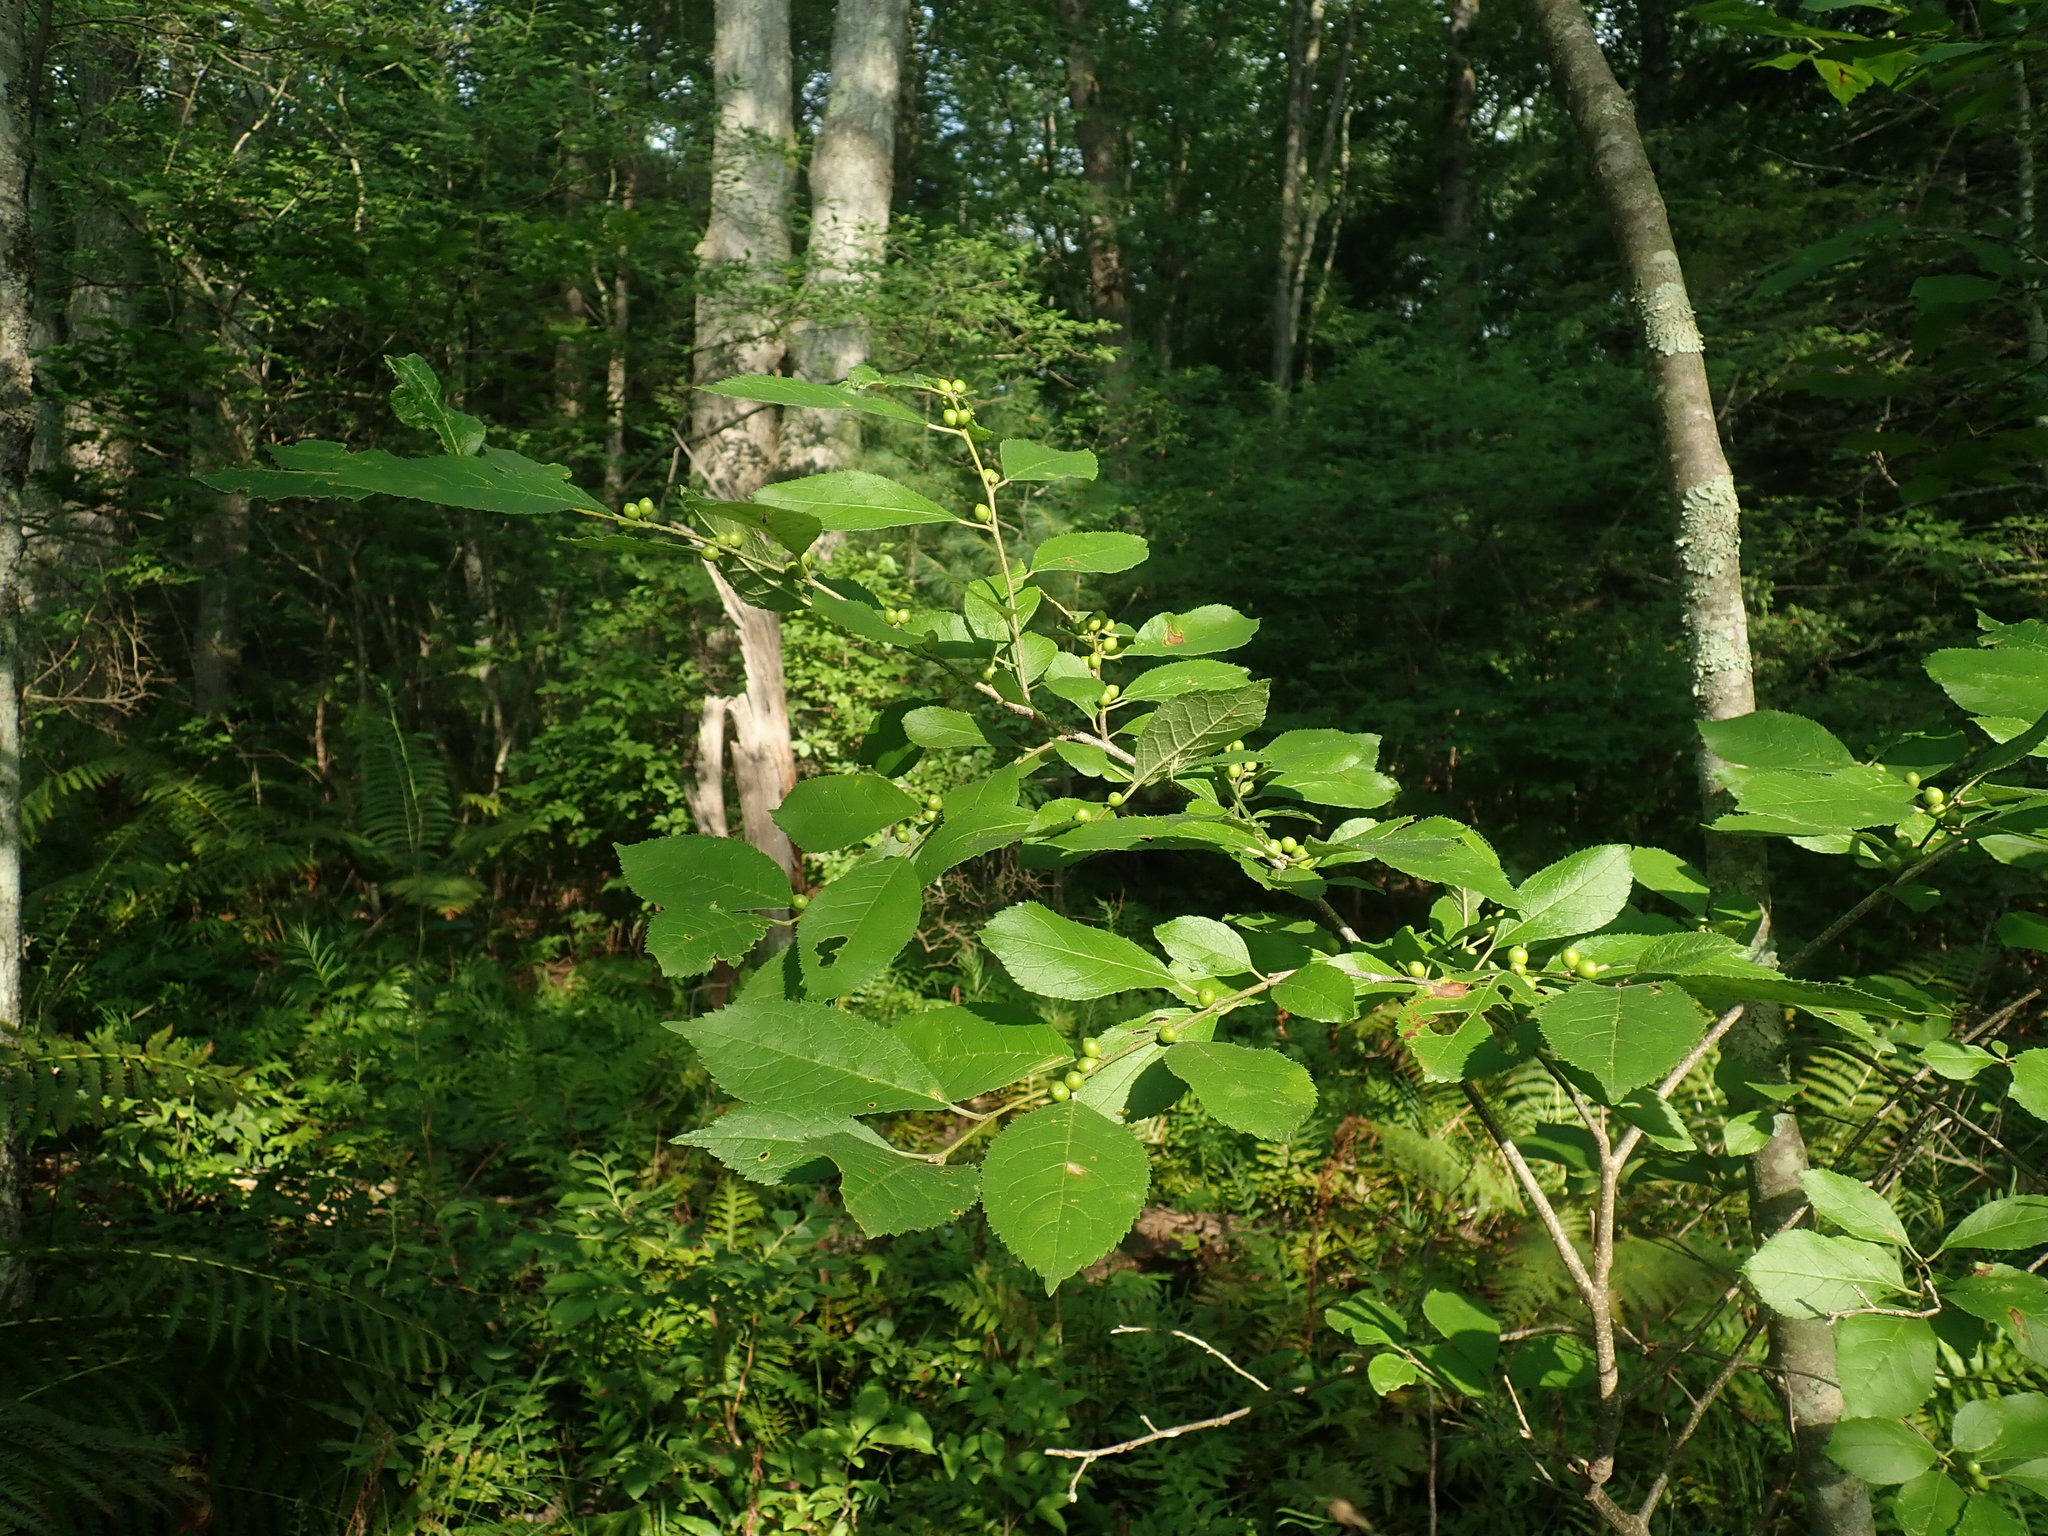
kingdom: Plantae
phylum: Tracheophyta
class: Magnoliopsida
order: Aquifoliales
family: Aquifoliaceae
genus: Ilex
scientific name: Ilex verticillata
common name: Virginia winterberry
